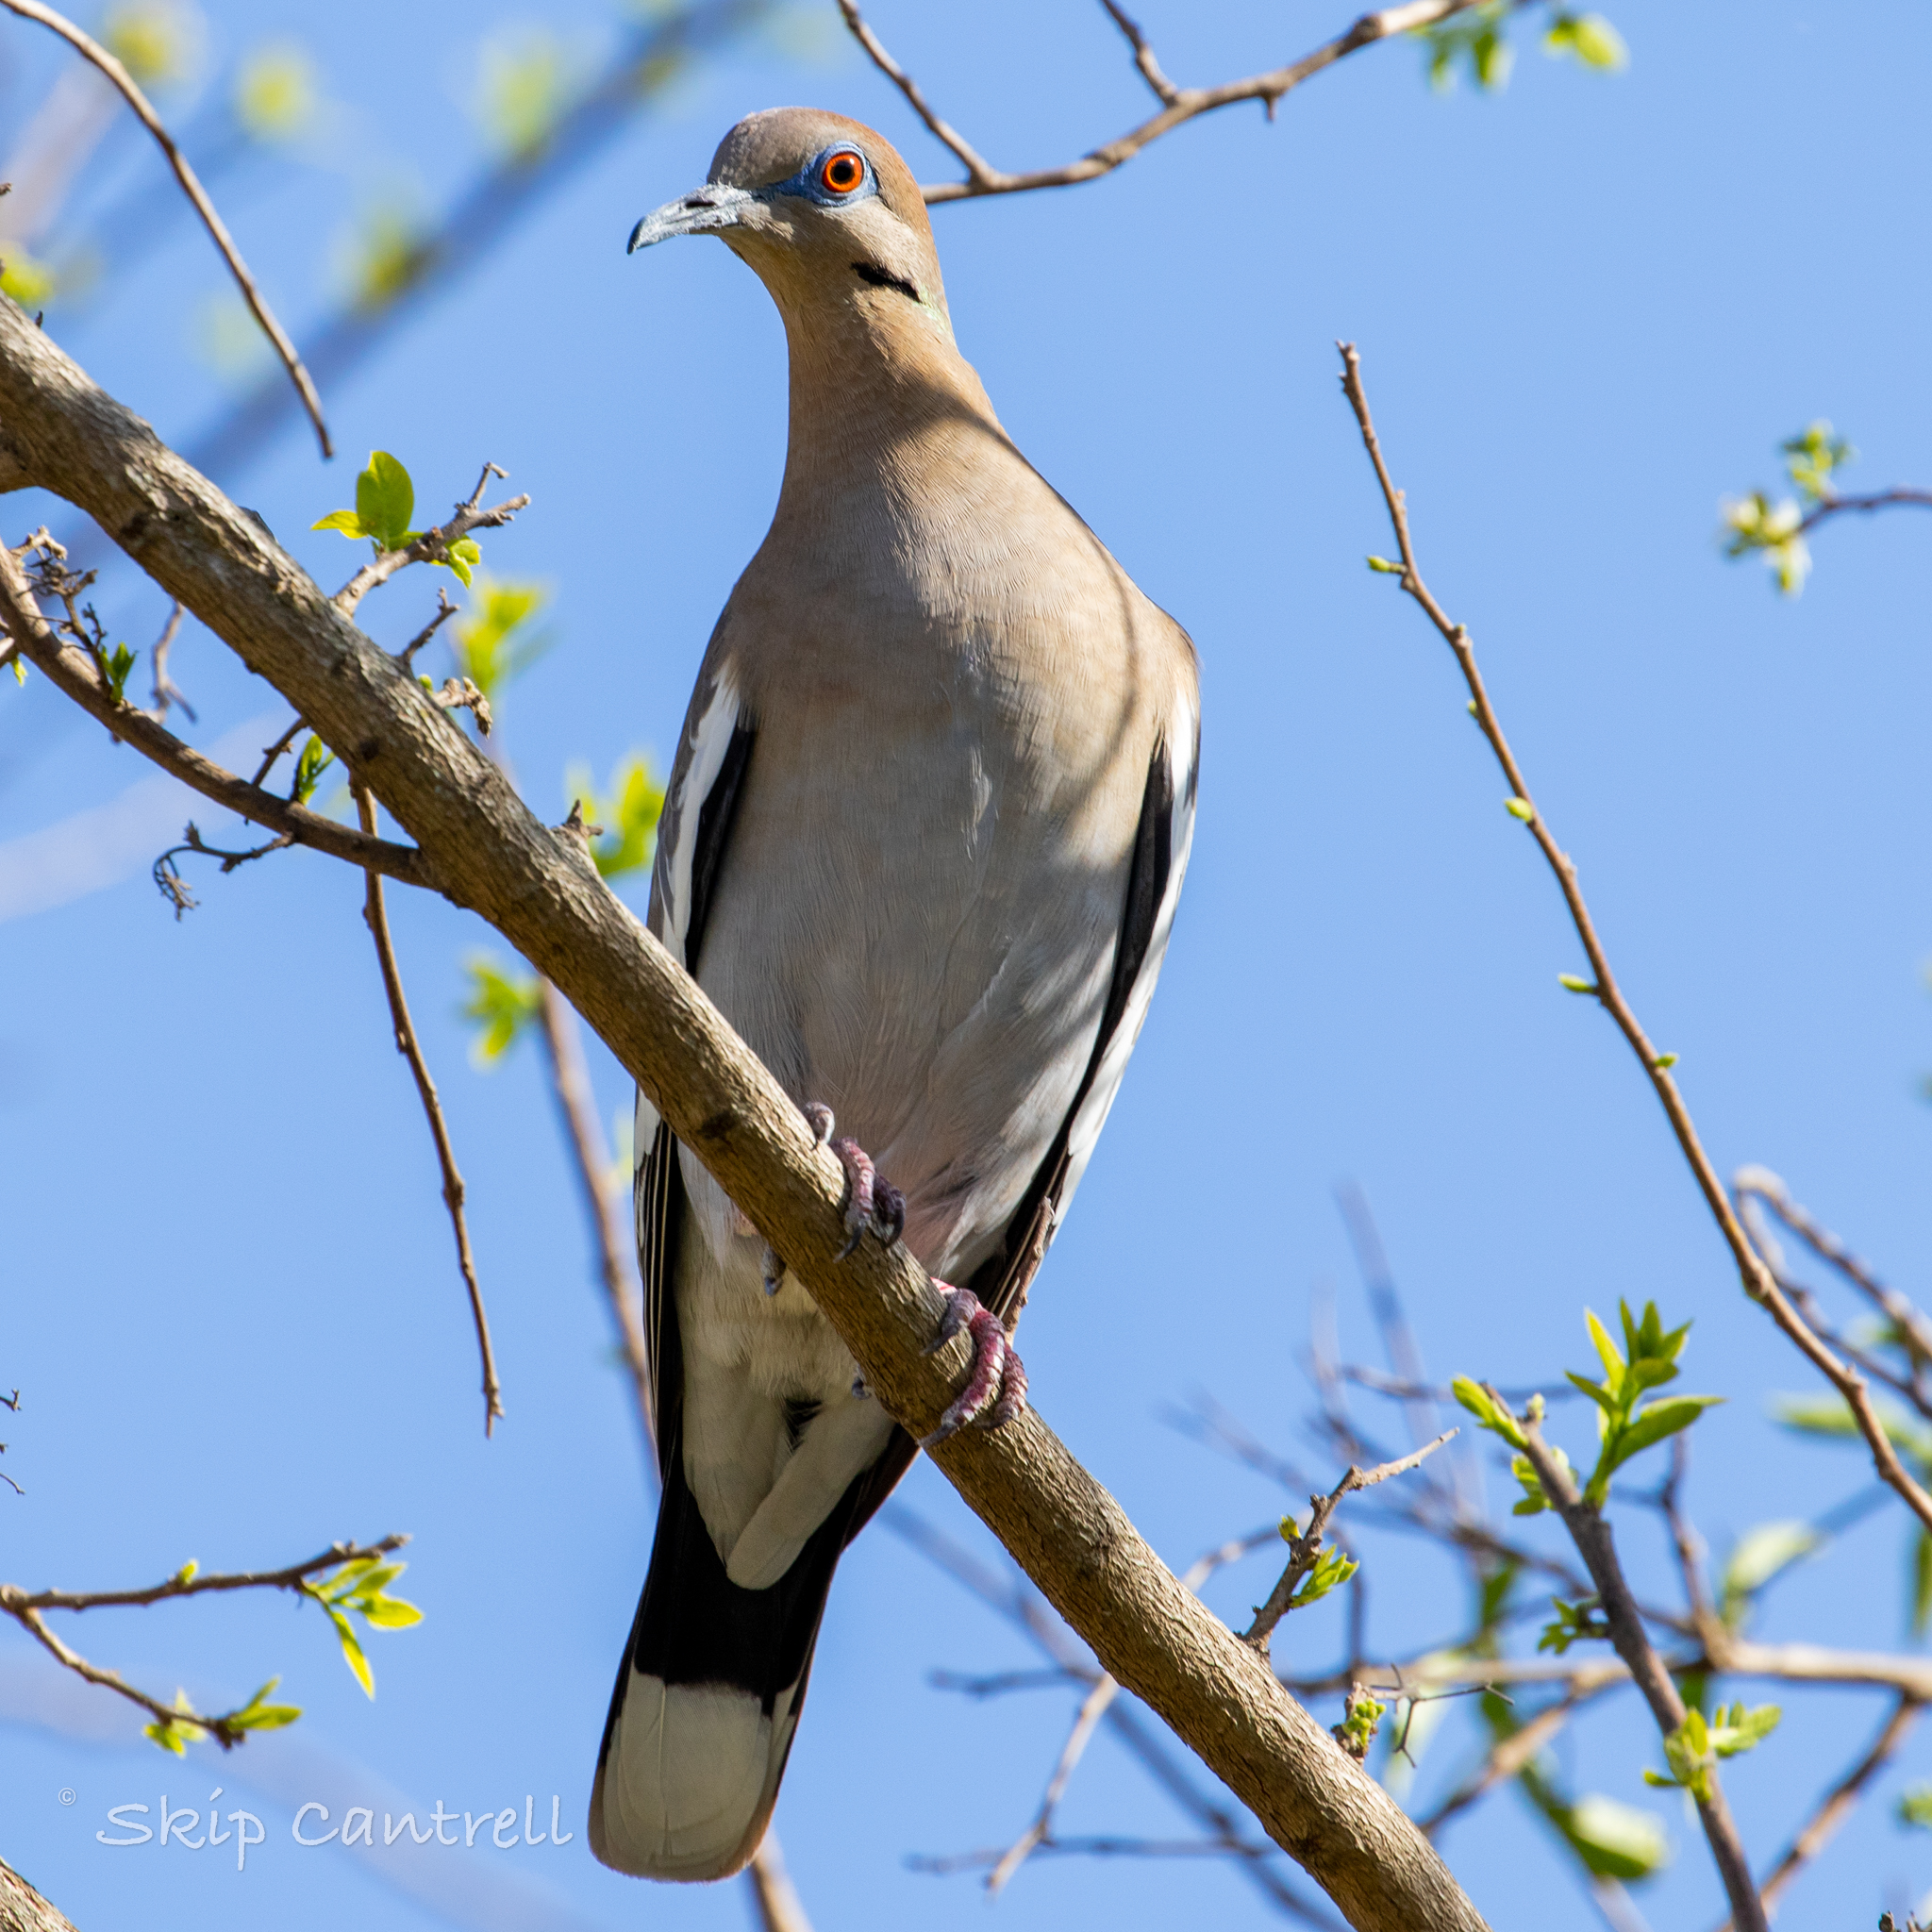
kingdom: Animalia
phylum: Chordata
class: Aves
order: Columbiformes
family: Columbidae
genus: Zenaida
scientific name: Zenaida asiatica
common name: White-winged dove
